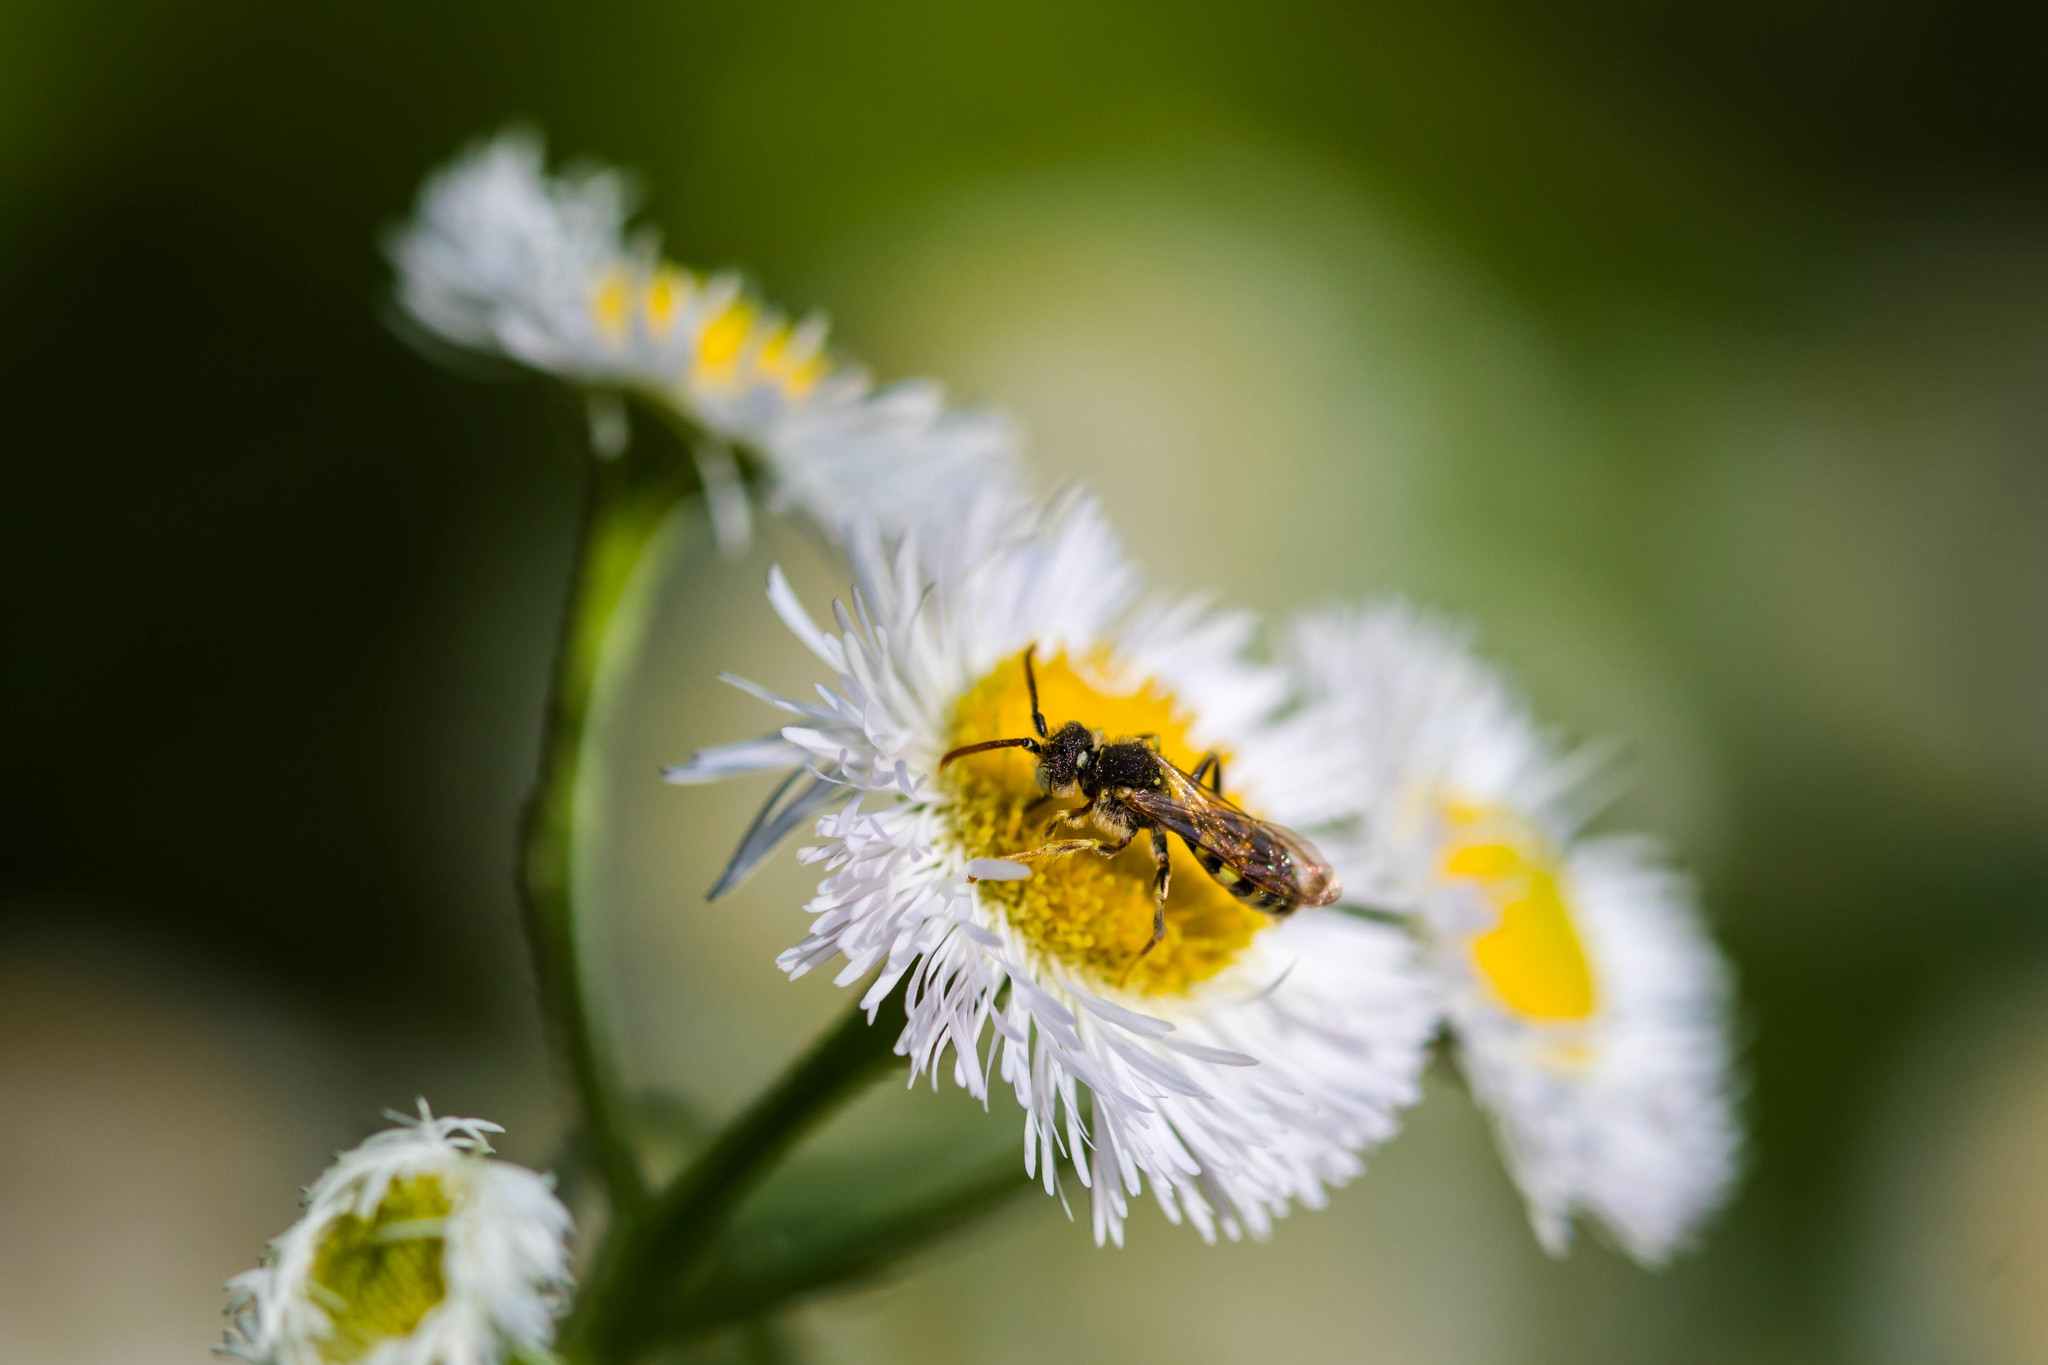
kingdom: Animalia
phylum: Arthropoda
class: Insecta
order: Hymenoptera
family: Apidae
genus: Nomada
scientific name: Nomada
